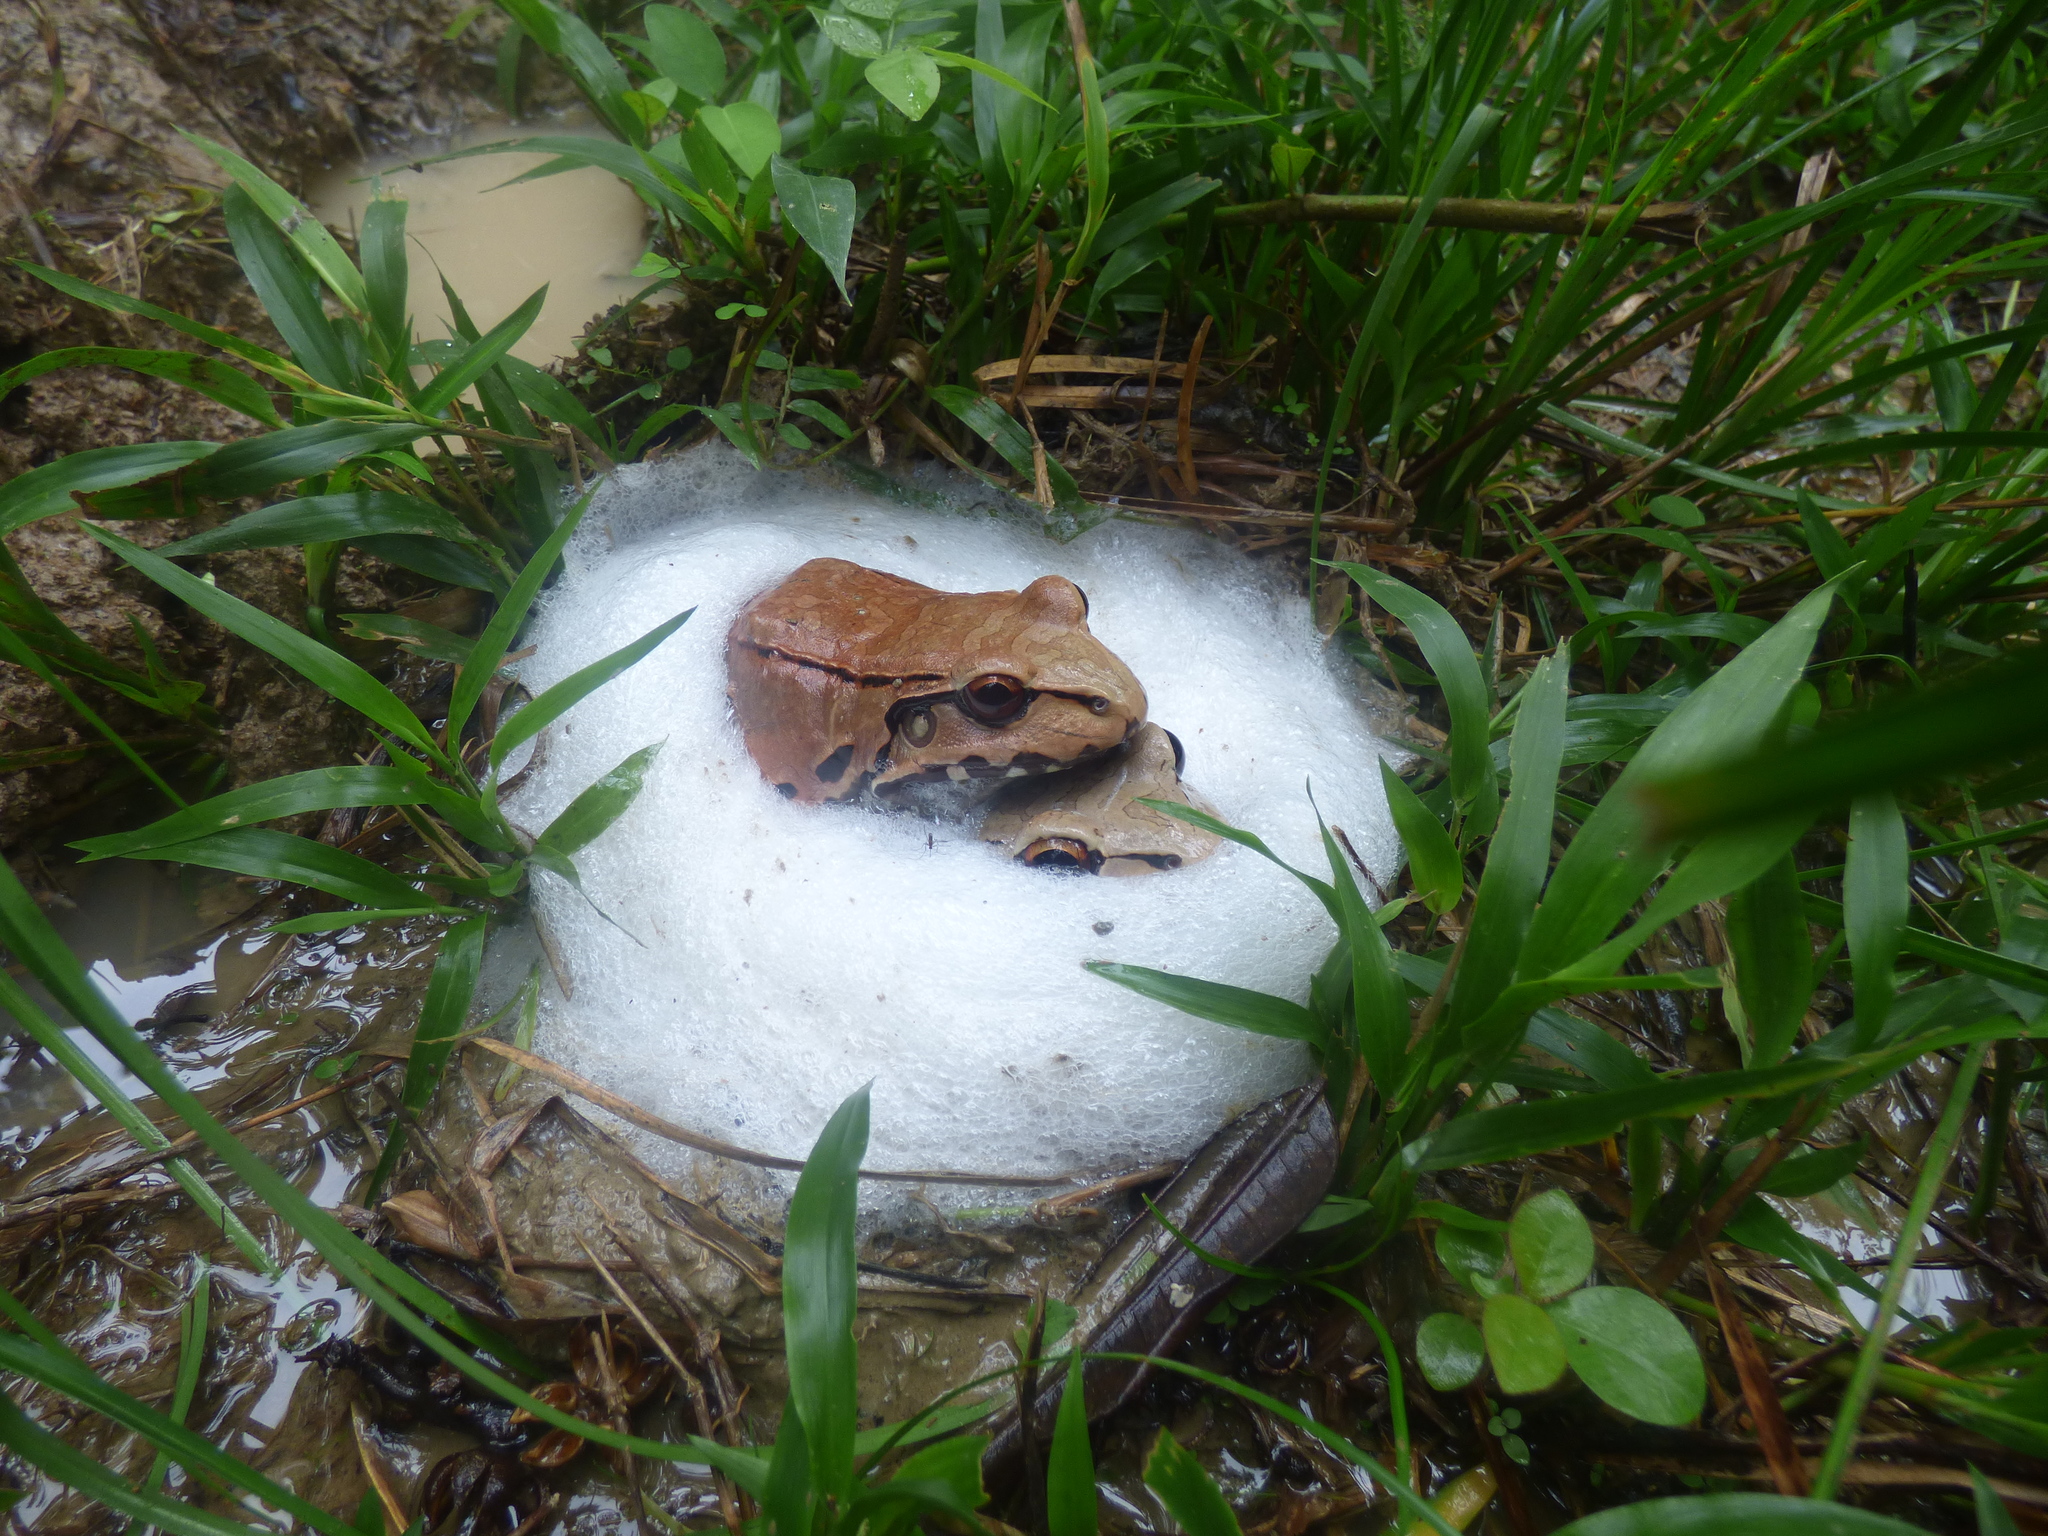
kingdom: Animalia
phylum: Chordata
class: Amphibia
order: Anura
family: Leptodactylidae
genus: Leptodactylus
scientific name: Leptodactylus savagei
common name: Savage's thin-toed frog
